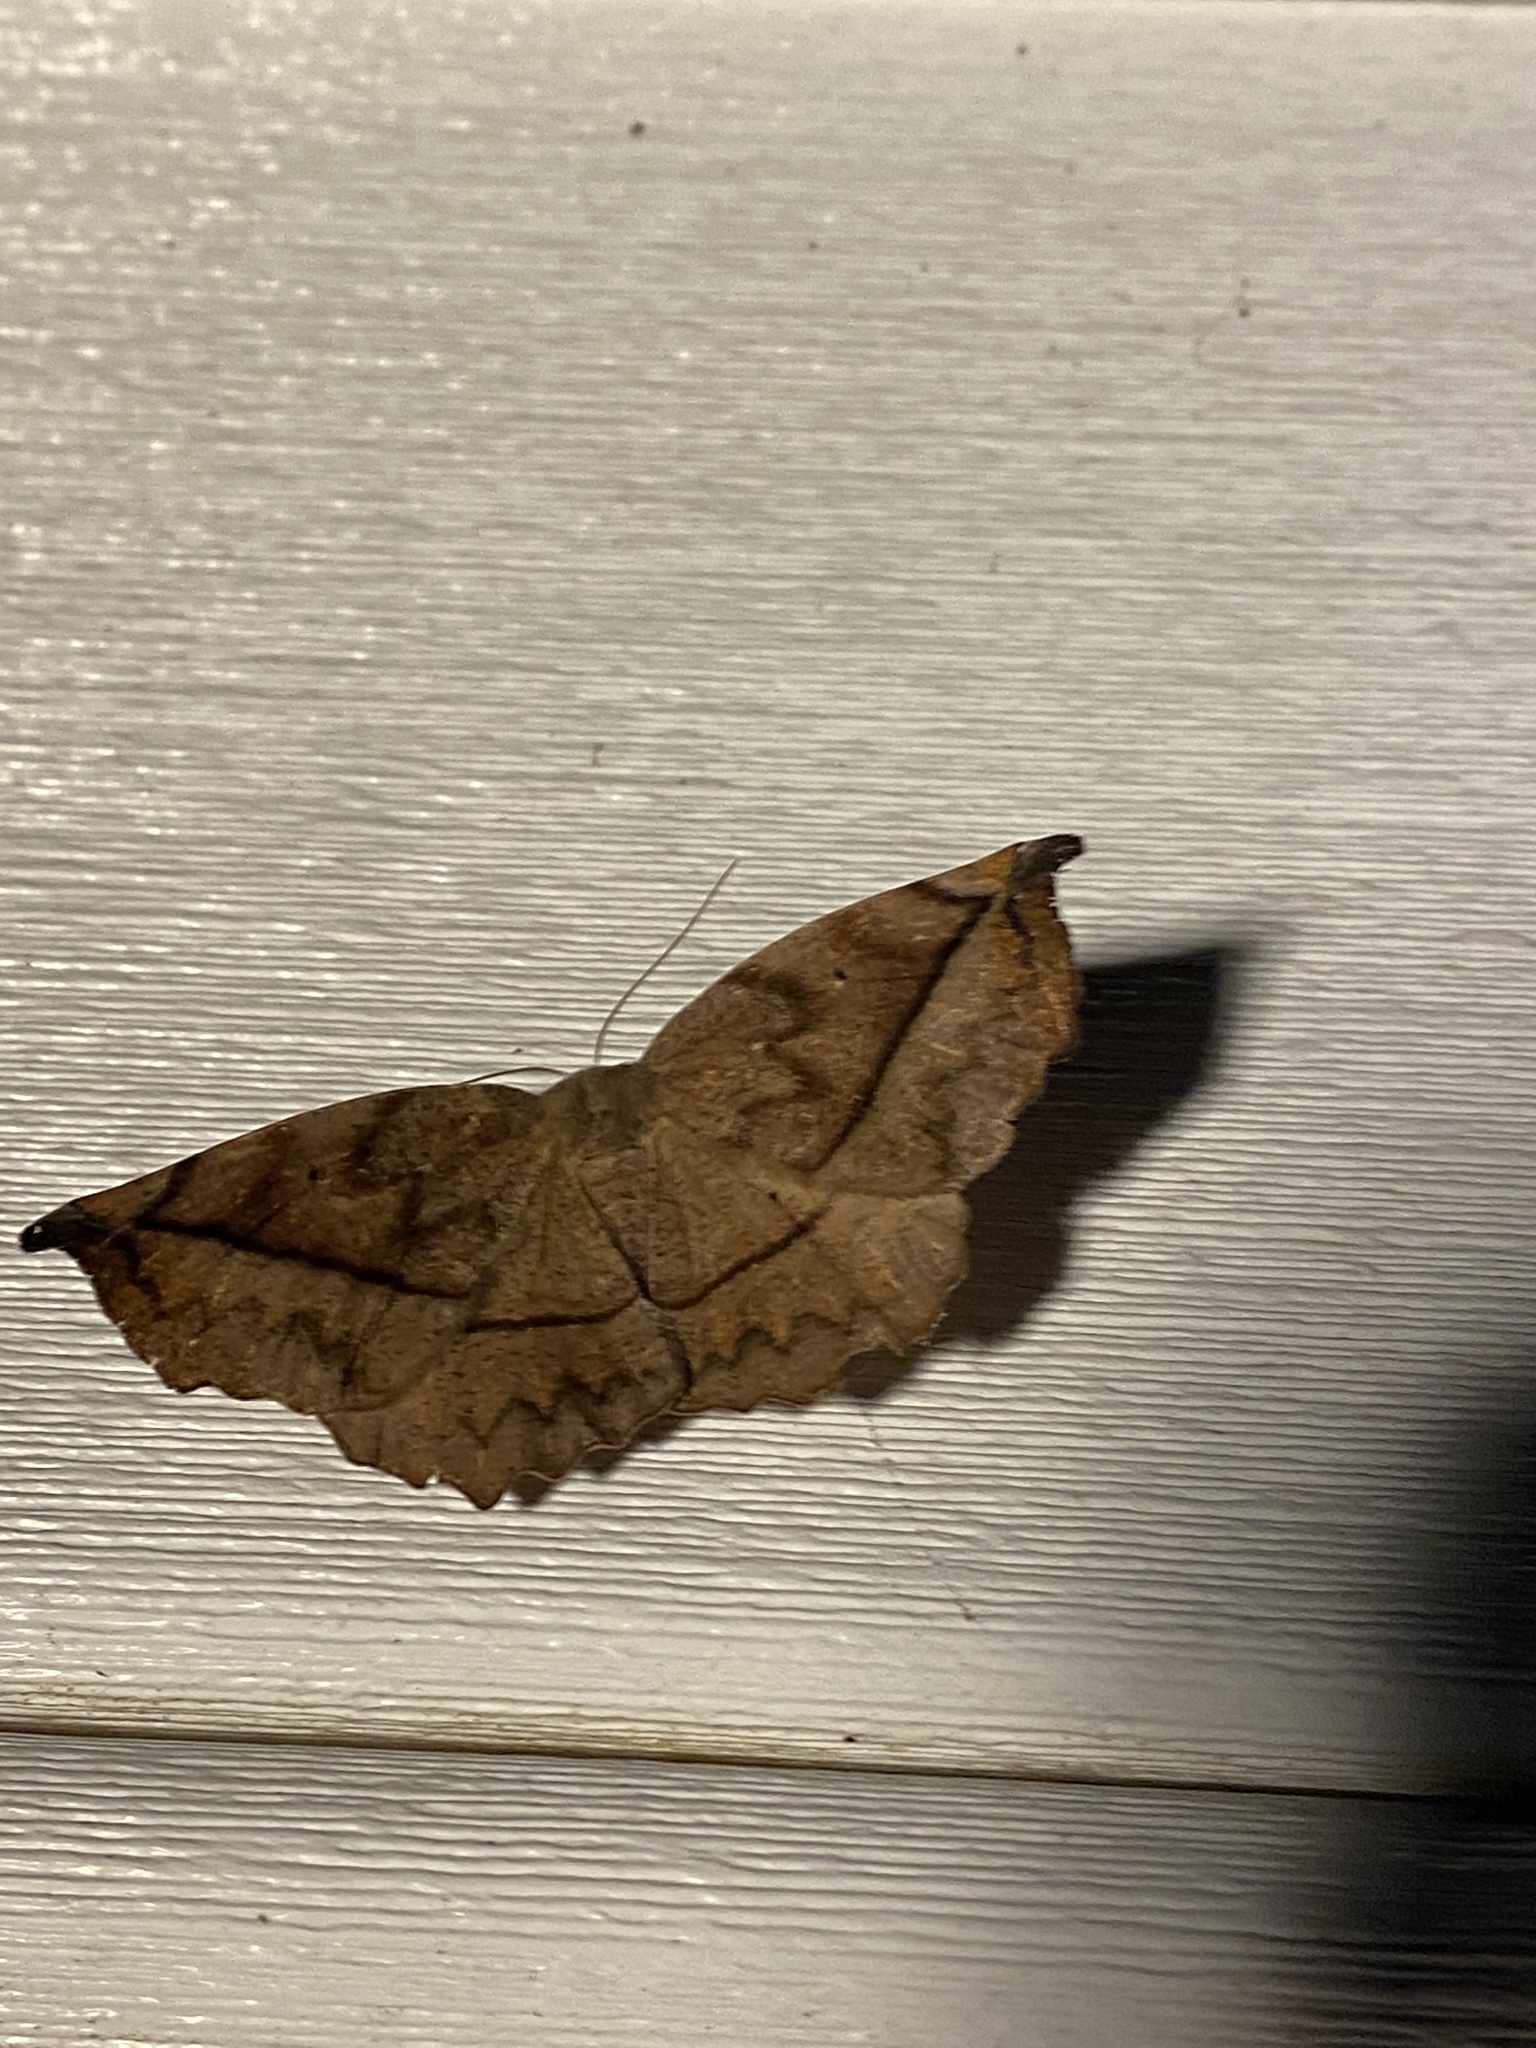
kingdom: Animalia
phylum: Arthropoda
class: Insecta
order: Lepidoptera
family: Geometridae
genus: Eutrapela
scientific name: Eutrapela clemataria
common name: Curved-toothed geometer
